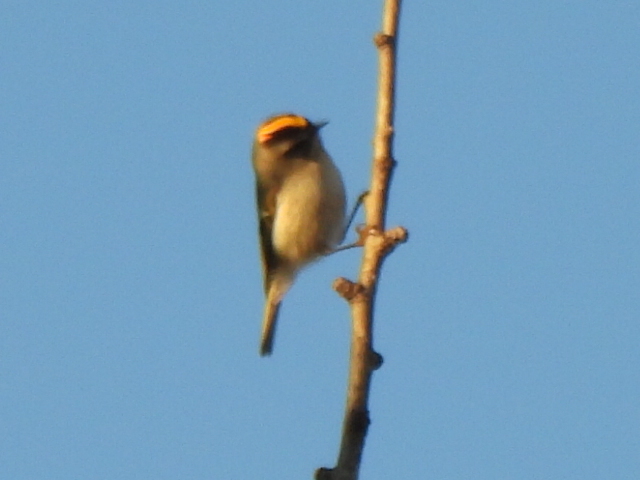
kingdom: Animalia
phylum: Chordata
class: Aves
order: Passeriformes
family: Regulidae
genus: Regulus
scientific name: Regulus satrapa
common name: Golden-crowned kinglet
